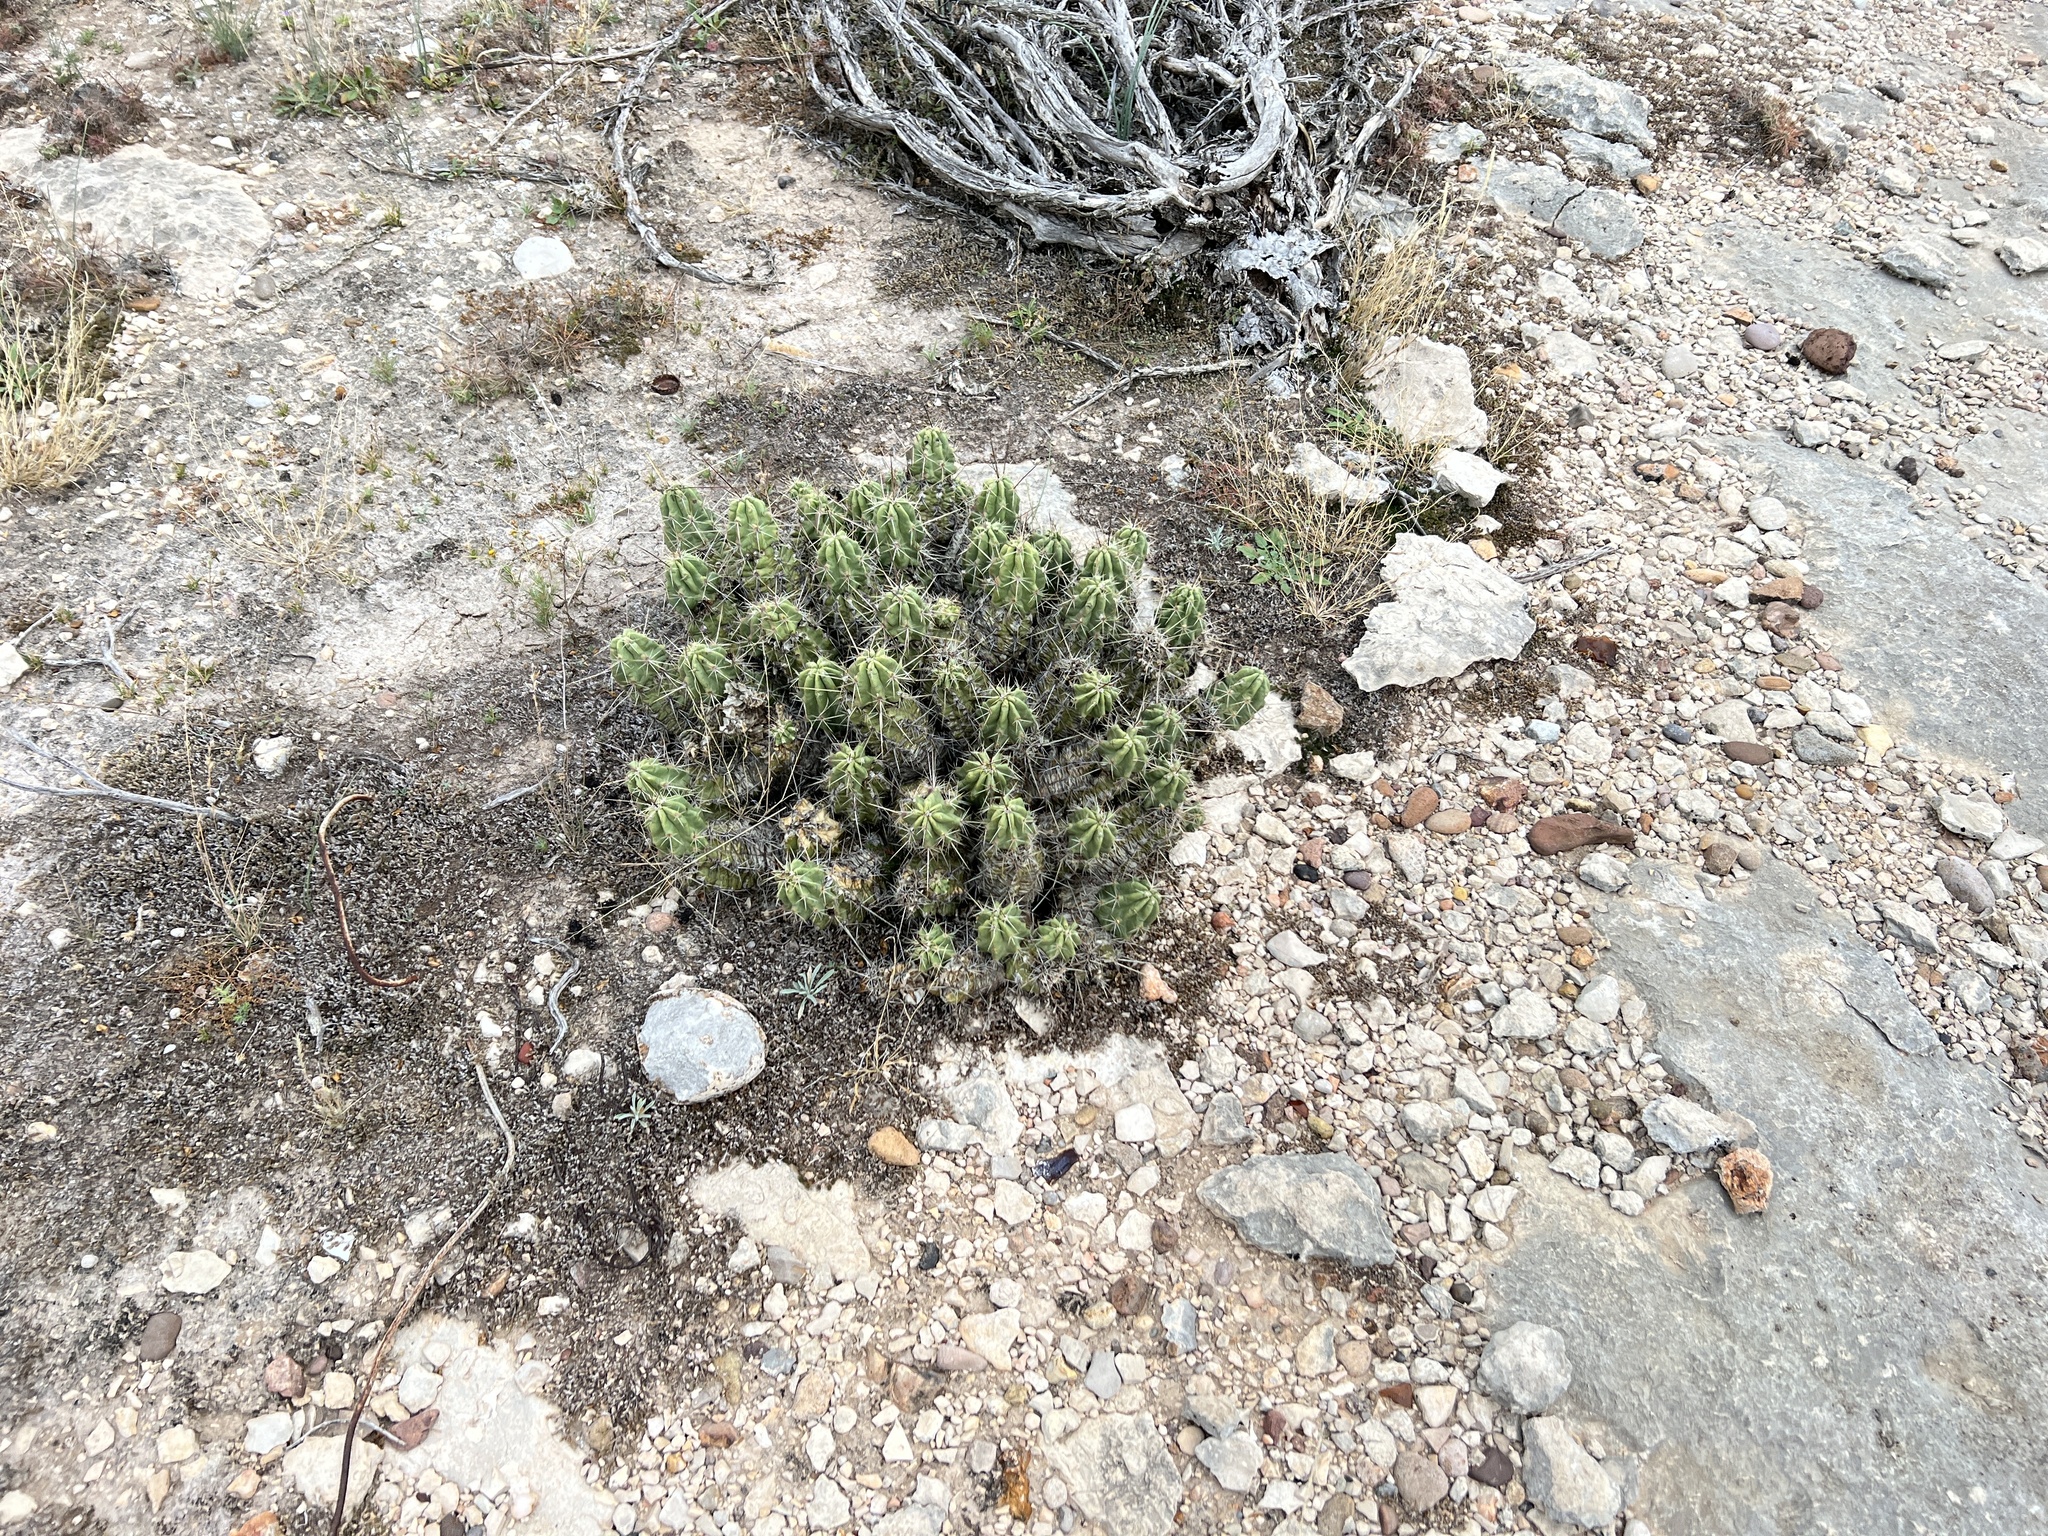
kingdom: Plantae
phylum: Tracheophyta
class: Magnoliopsida
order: Caryophyllales
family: Cactaceae
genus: Echinocereus
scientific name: Echinocereus enneacanthus
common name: Pitaya
